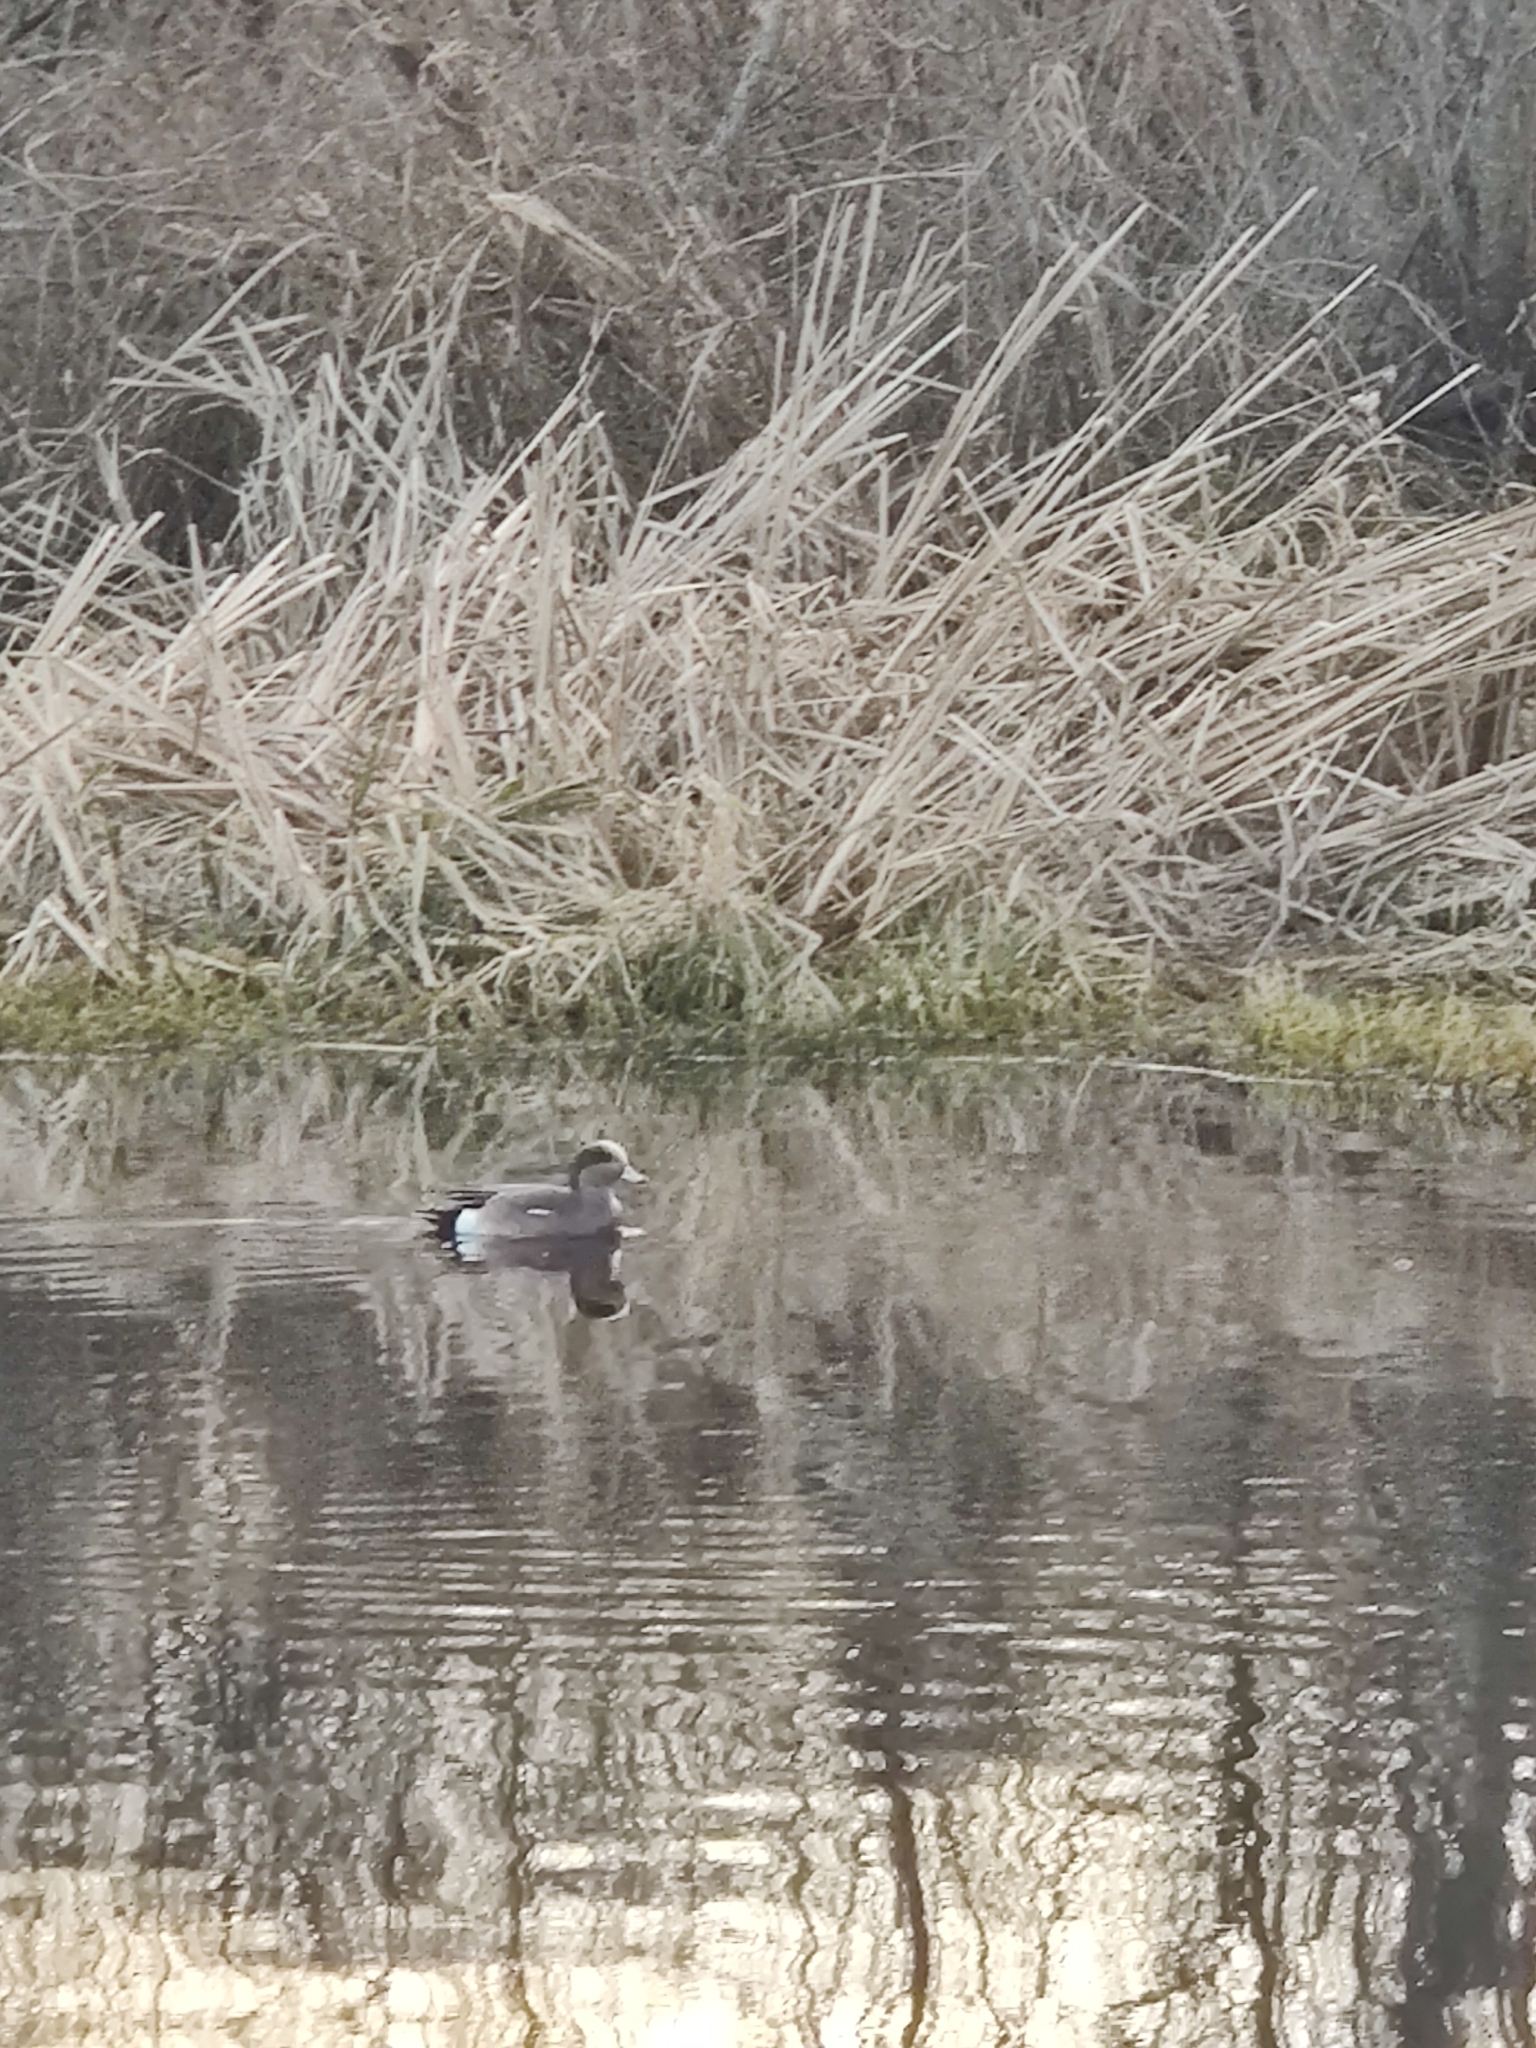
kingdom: Animalia
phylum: Chordata
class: Aves
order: Anseriformes
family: Anatidae
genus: Mareca
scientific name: Mareca americana
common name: American wigeon
